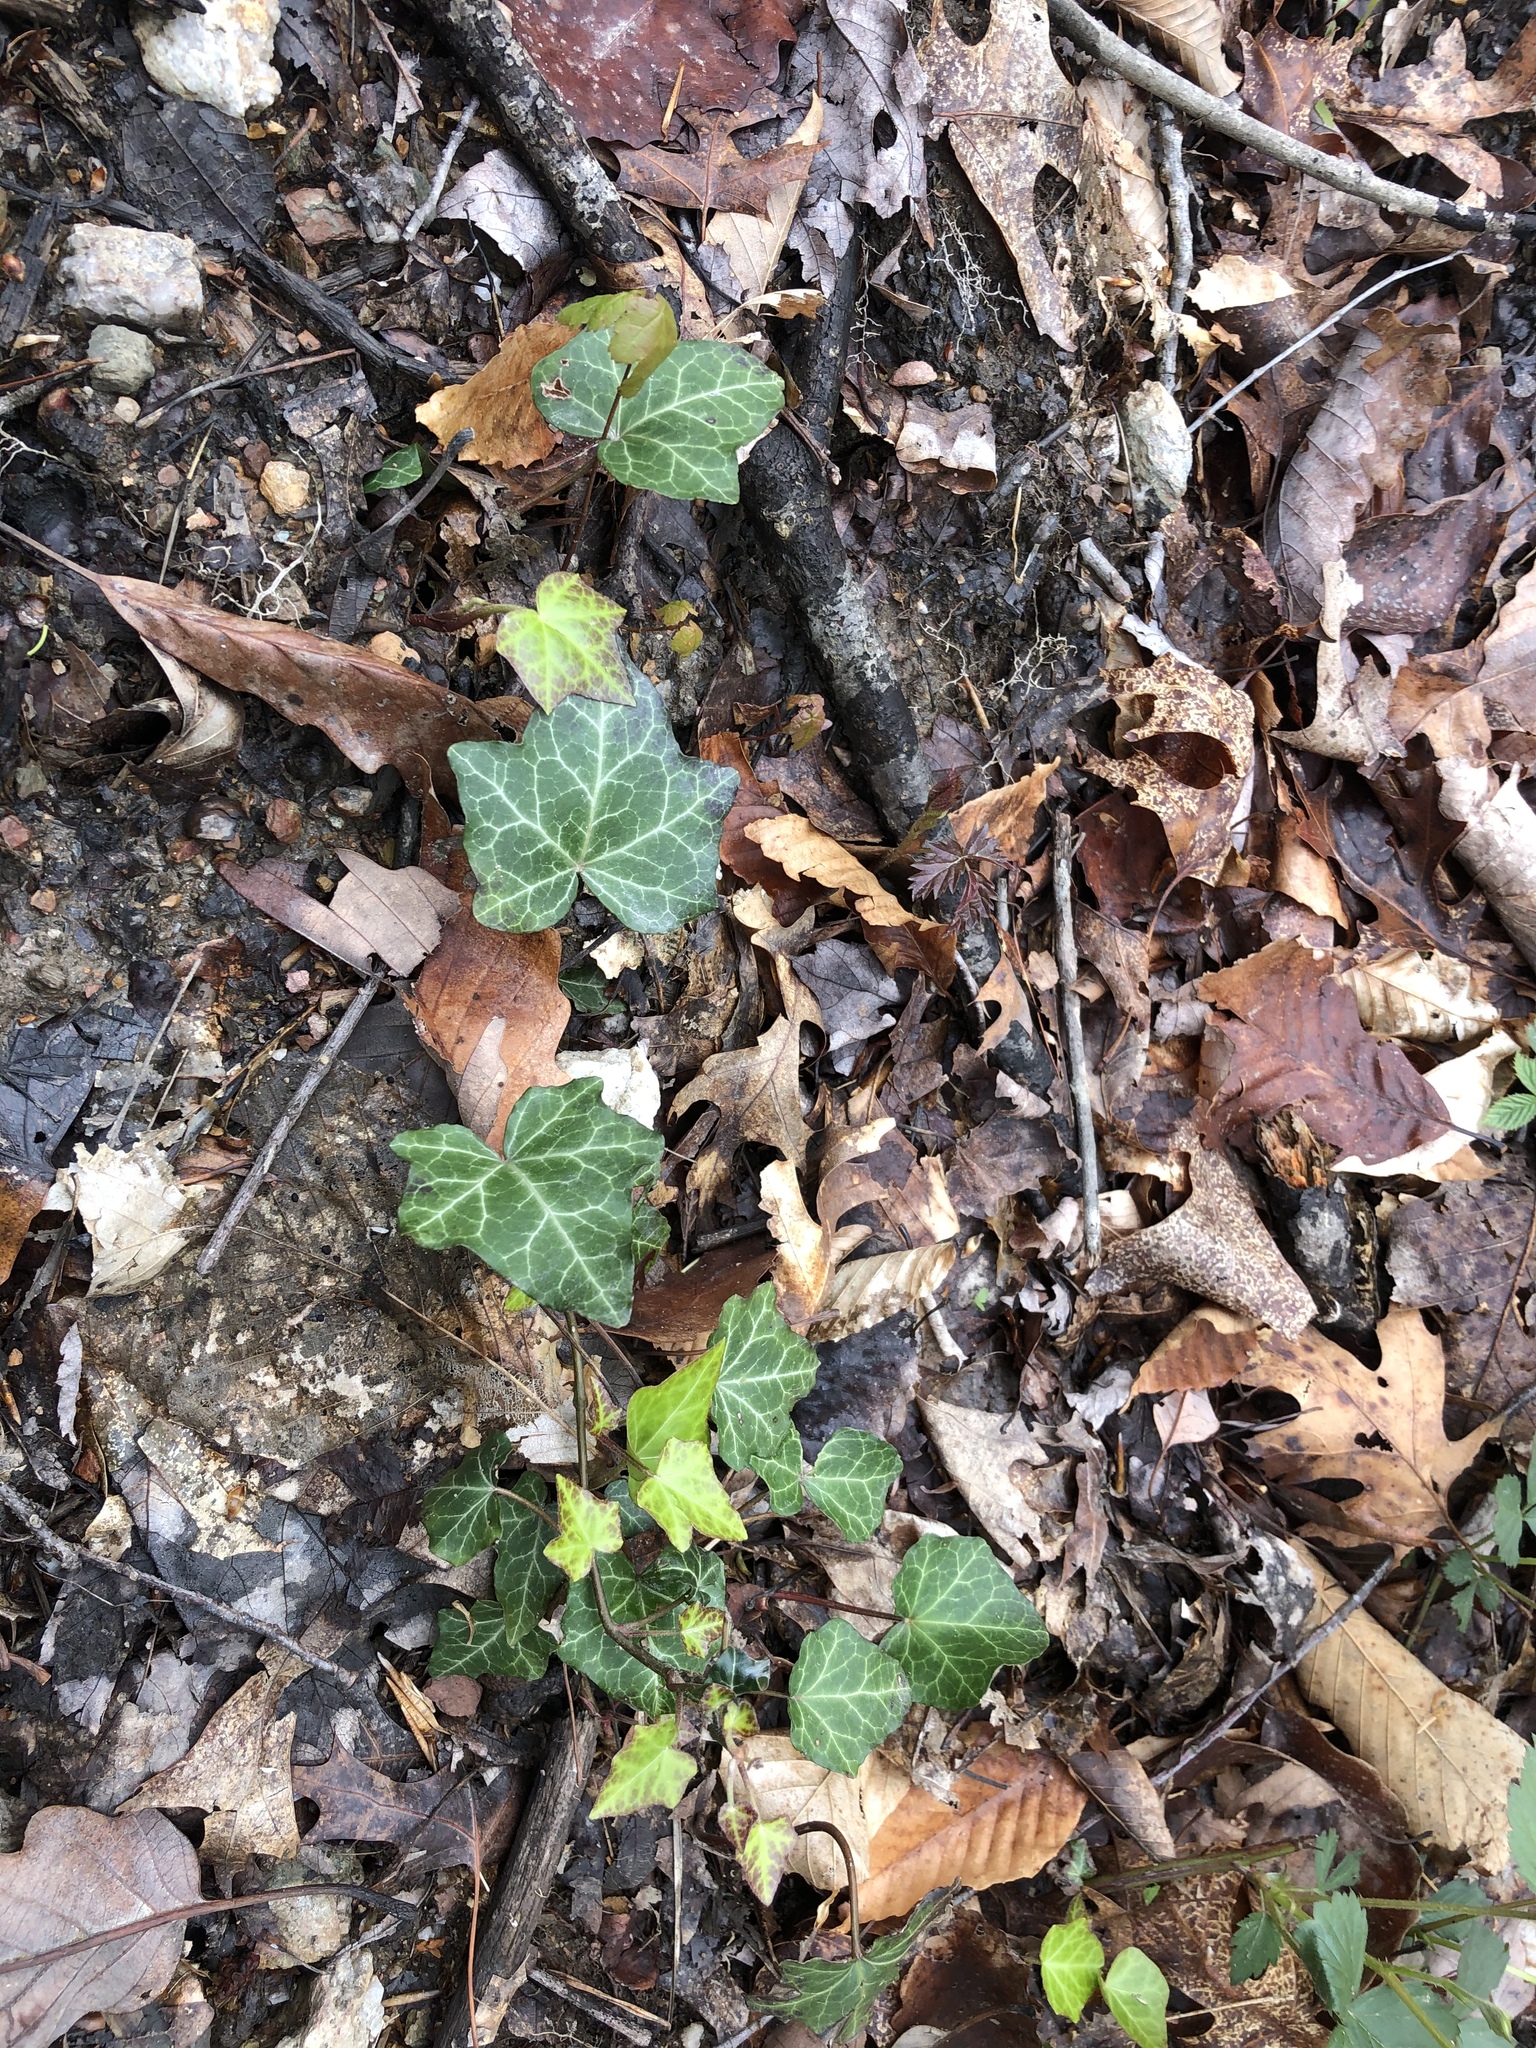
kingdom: Plantae
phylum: Tracheophyta
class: Magnoliopsida
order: Apiales
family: Araliaceae
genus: Hedera
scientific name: Hedera helix
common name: Ivy
